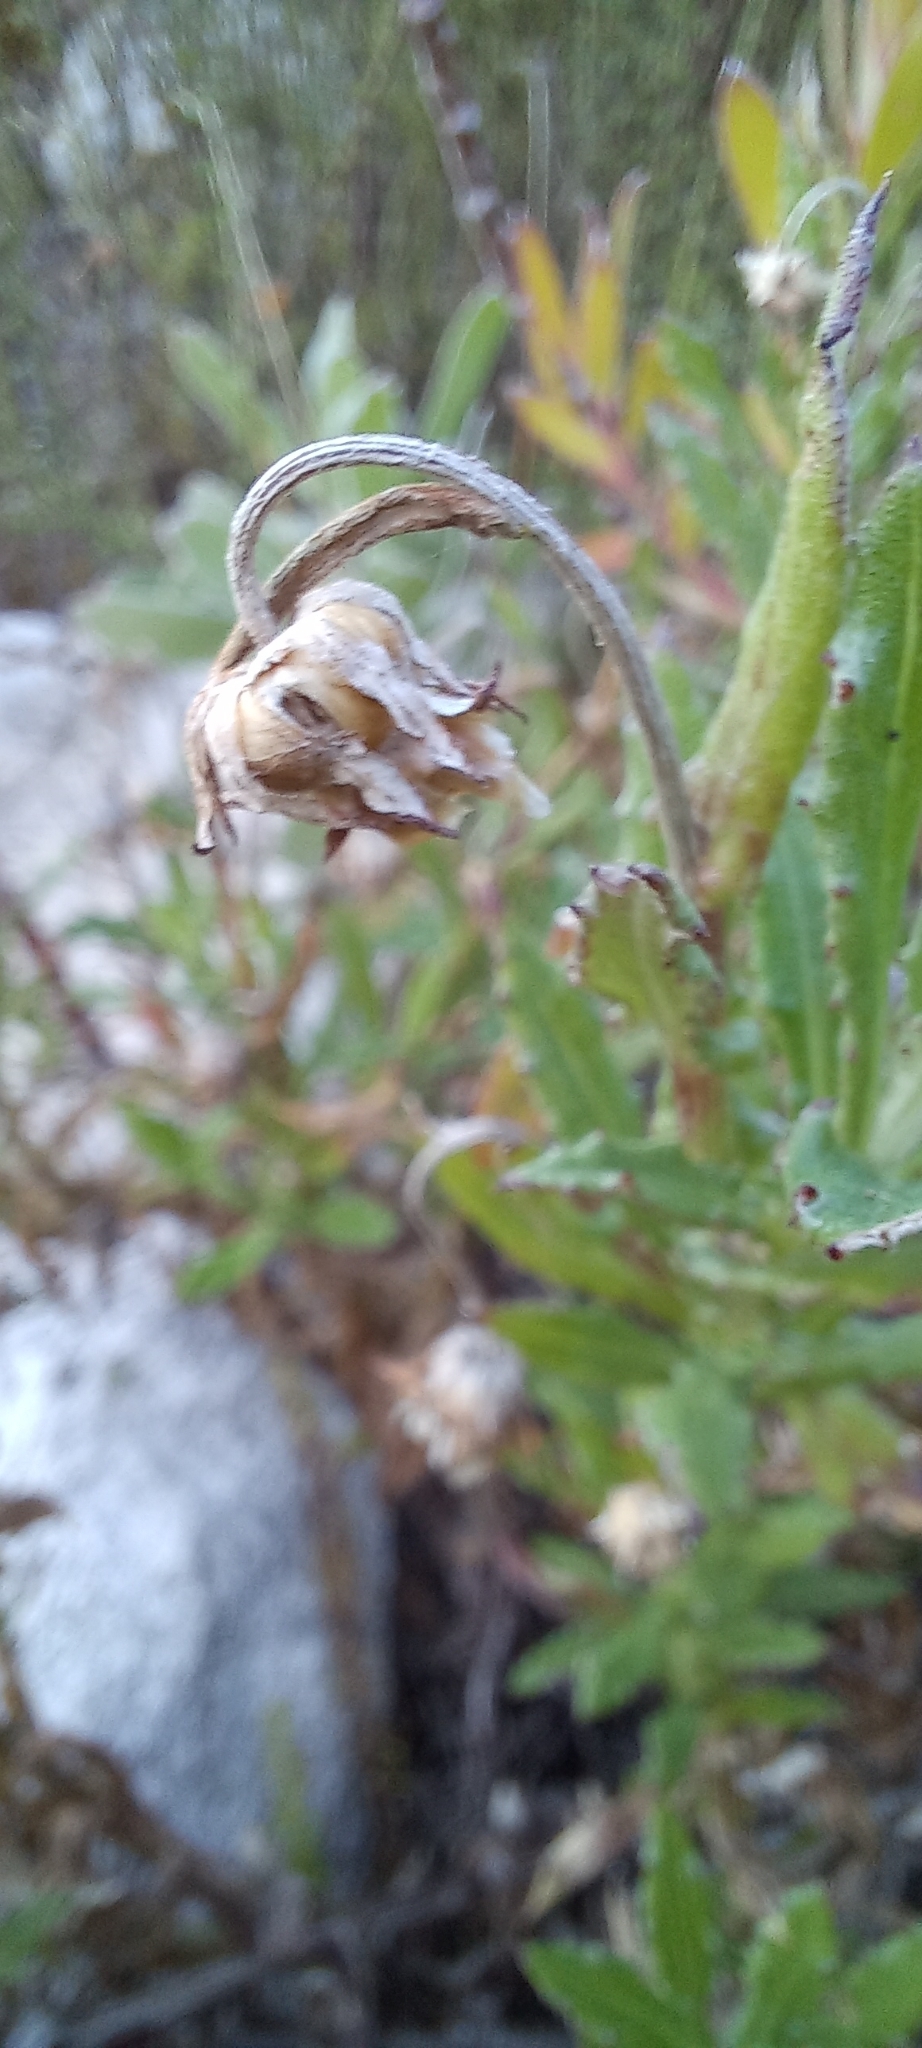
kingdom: Plantae
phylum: Tracheophyta
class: Magnoliopsida
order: Asterales
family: Asteraceae
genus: Arctotis
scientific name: Arctotis scabra
